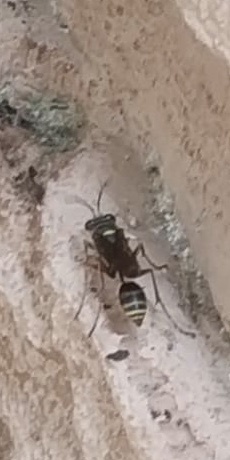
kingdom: Animalia
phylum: Arthropoda
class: Insecta
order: Hymenoptera
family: Sphecidae
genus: Sceliphron
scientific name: Sceliphron curvatum
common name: Pèlopèe
